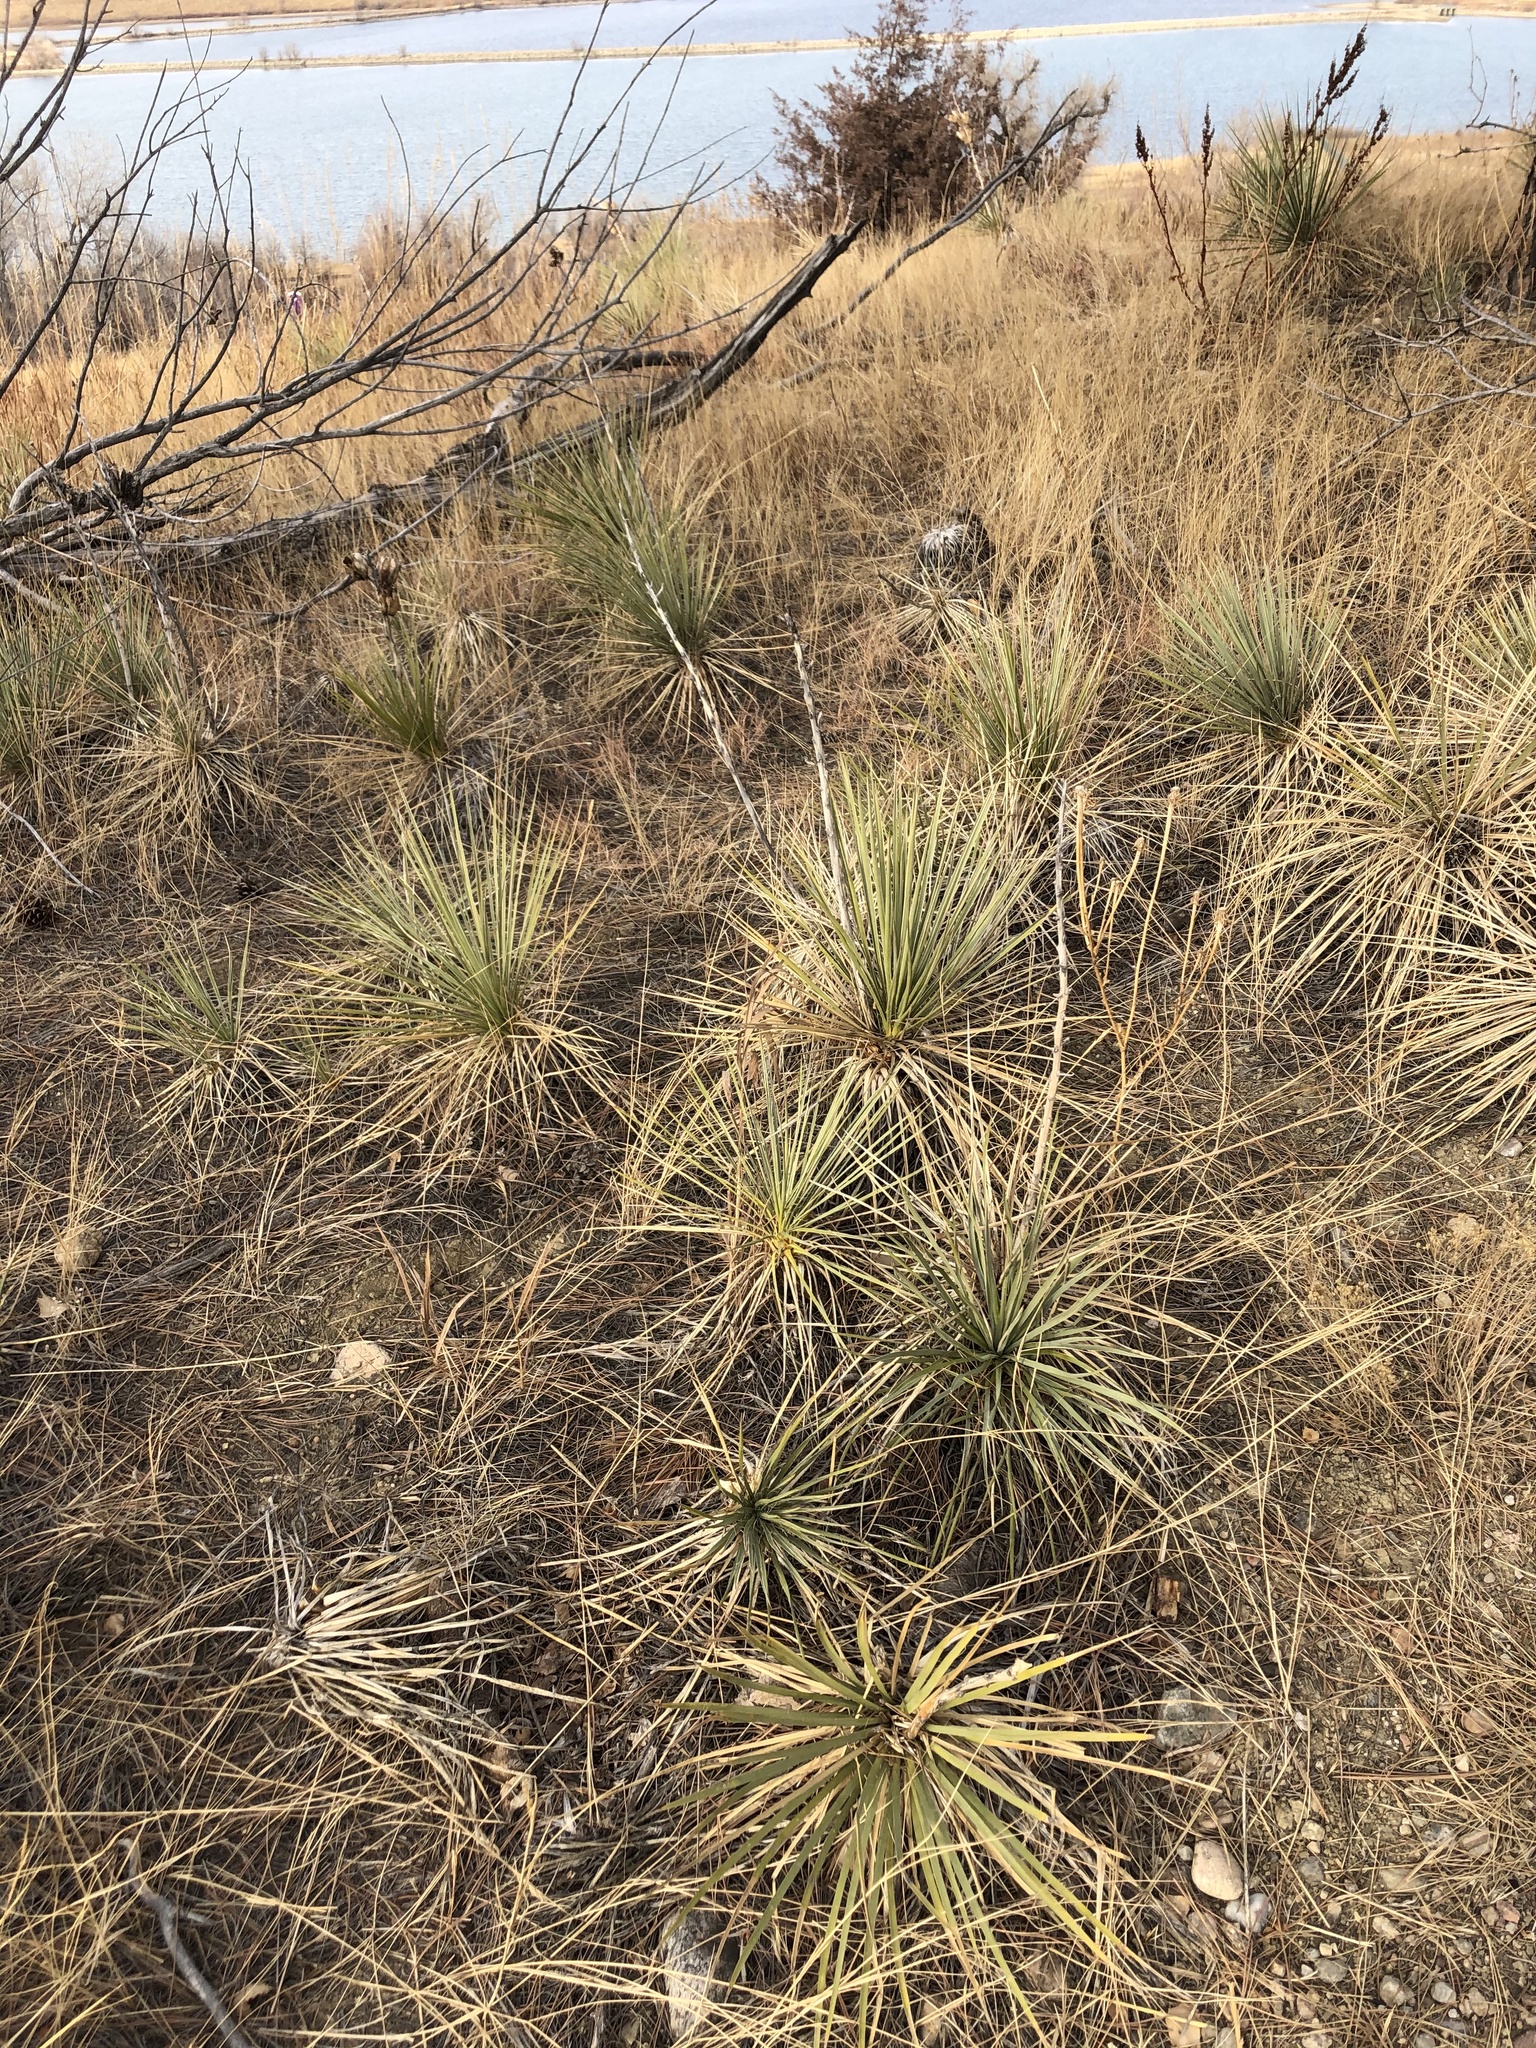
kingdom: Plantae
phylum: Tracheophyta
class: Liliopsida
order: Asparagales
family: Asparagaceae
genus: Yucca
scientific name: Yucca glauca
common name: Great plains yucca
